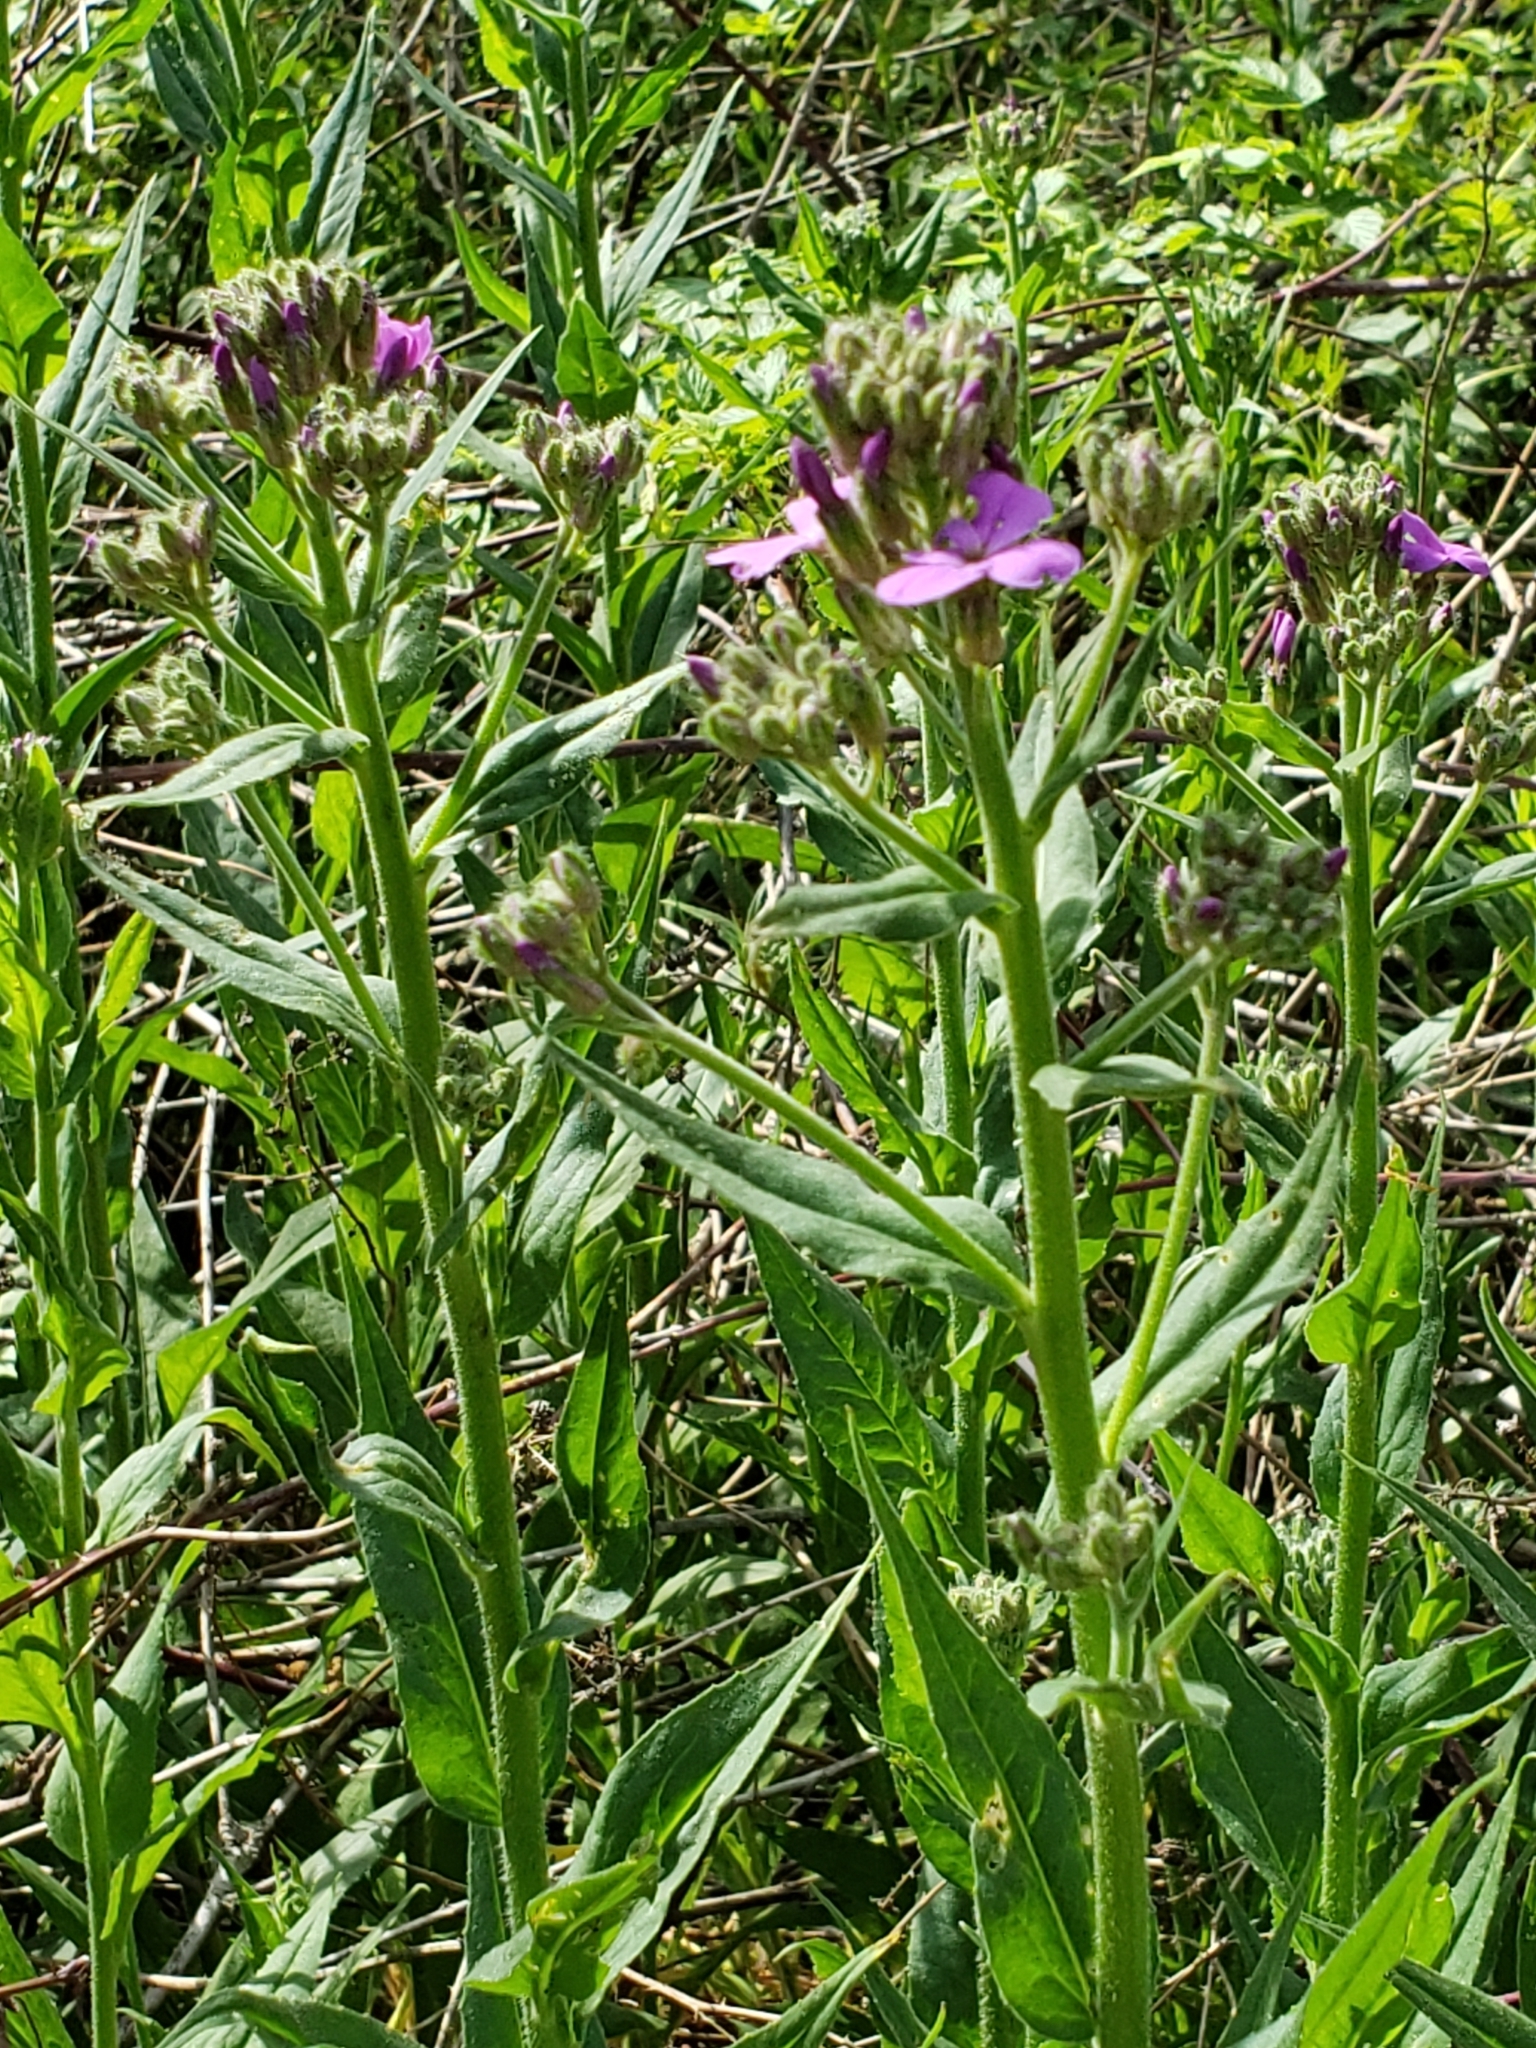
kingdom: Plantae
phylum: Tracheophyta
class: Magnoliopsida
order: Brassicales
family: Brassicaceae
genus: Hesperis
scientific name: Hesperis matronalis
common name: Dame's-violet
